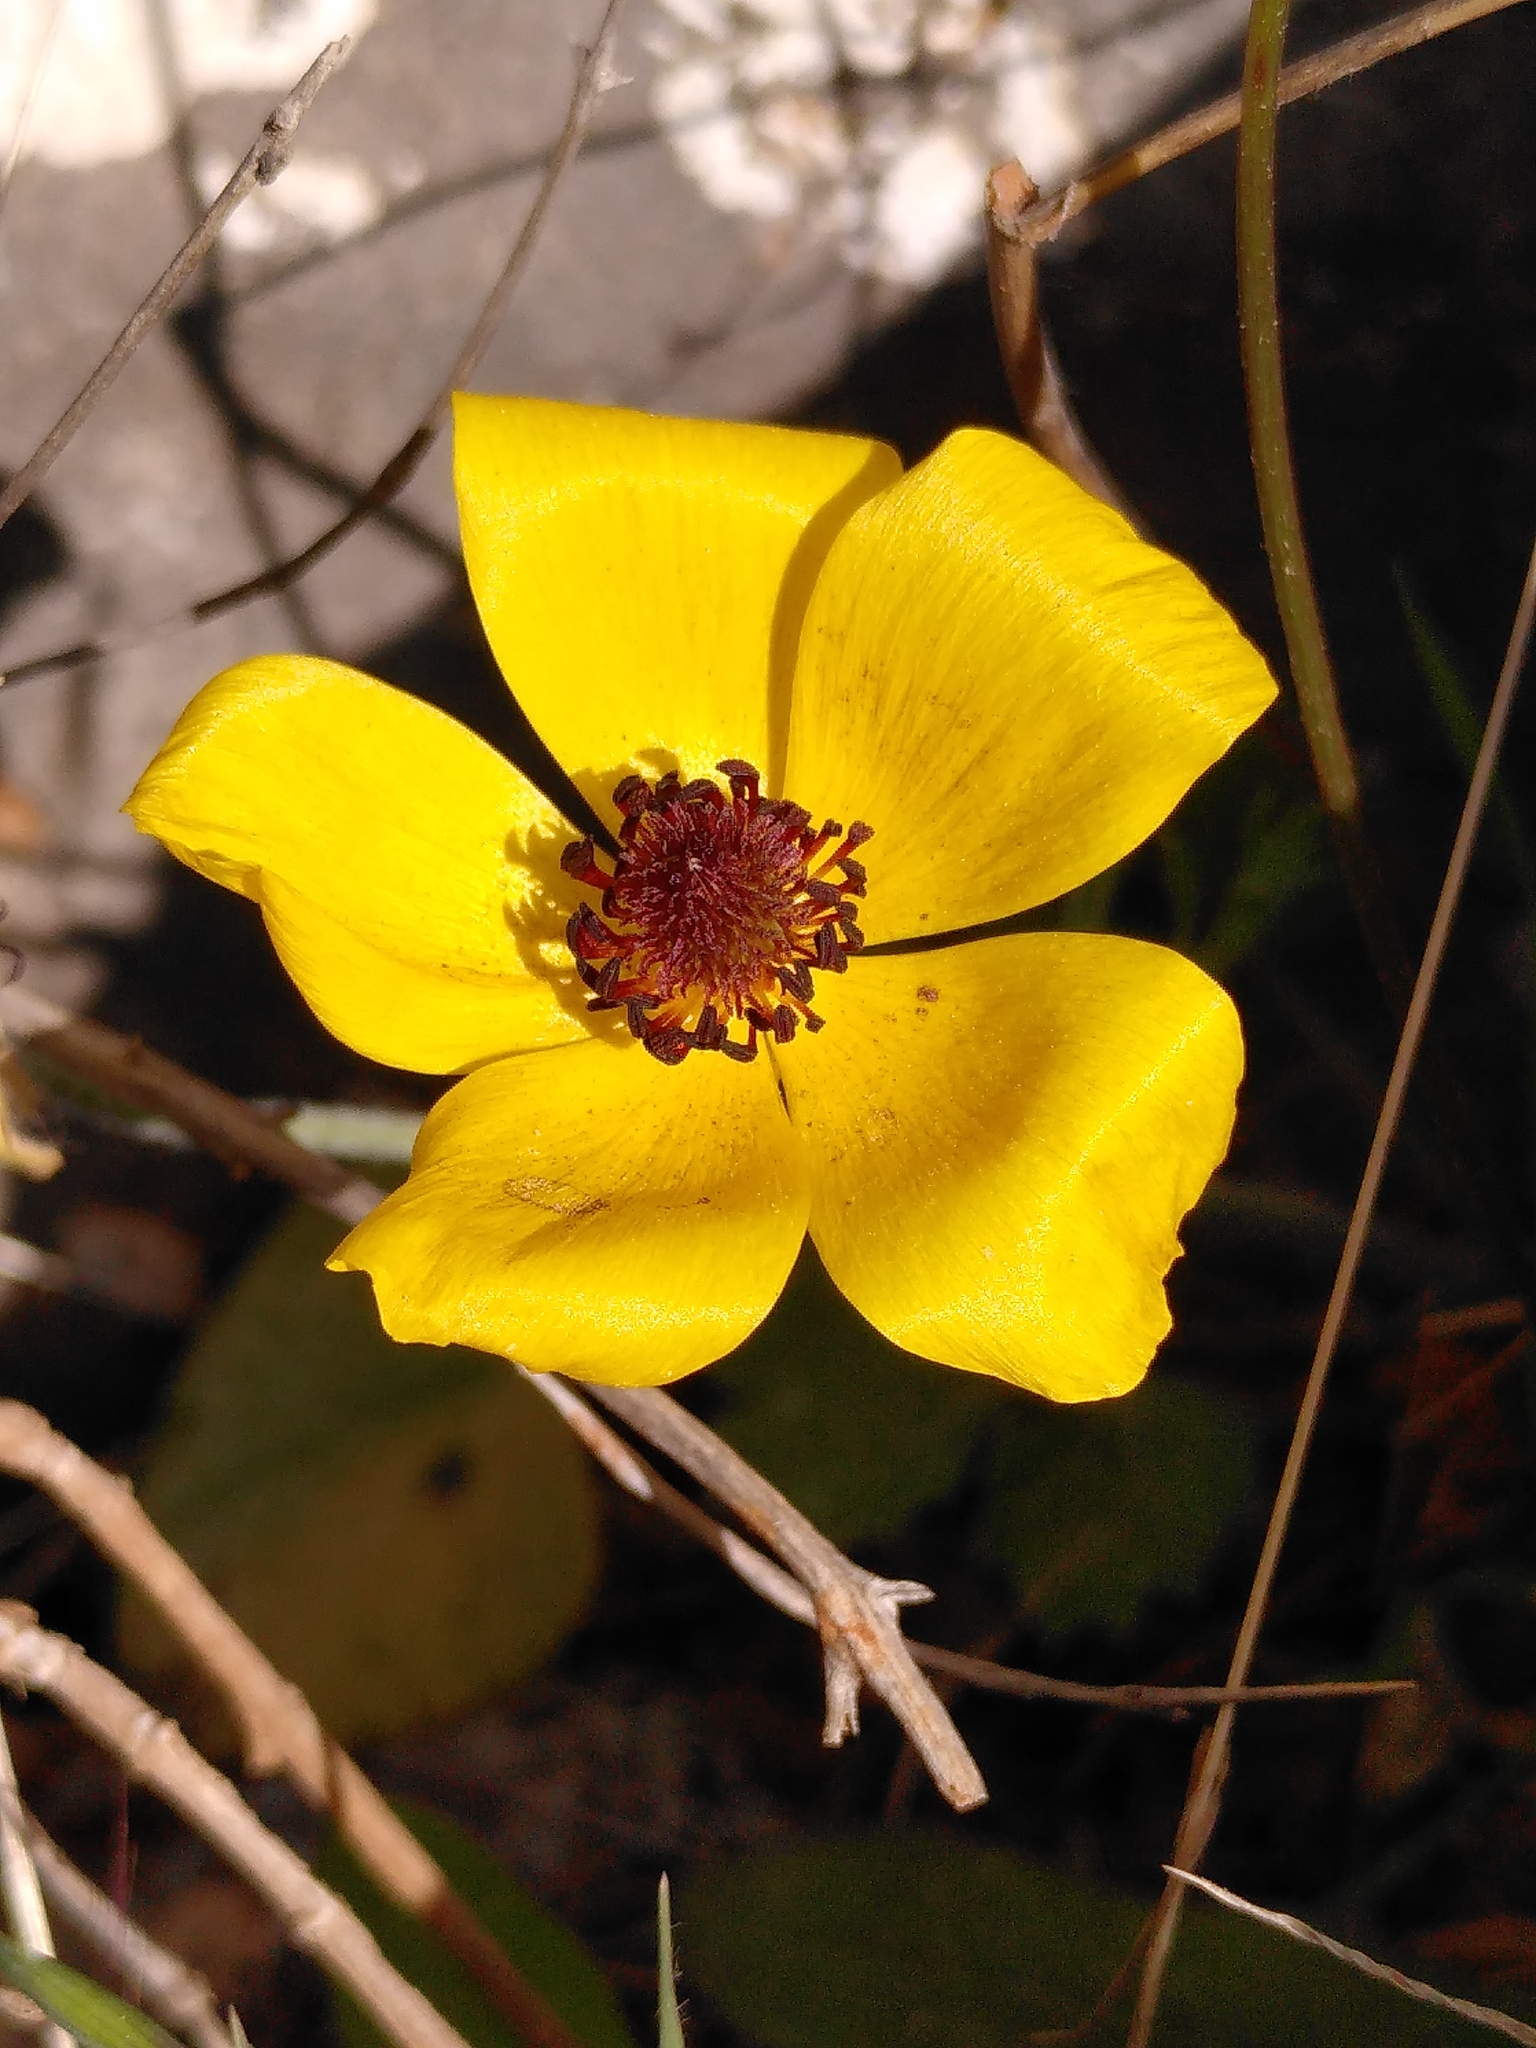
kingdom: Plantae
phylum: Tracheophyta
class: Magnoliopsida
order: Ranunculales
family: Ranunculaceae
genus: Ranunculus
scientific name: Ranunculus asiaticus
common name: Persian buttercup
